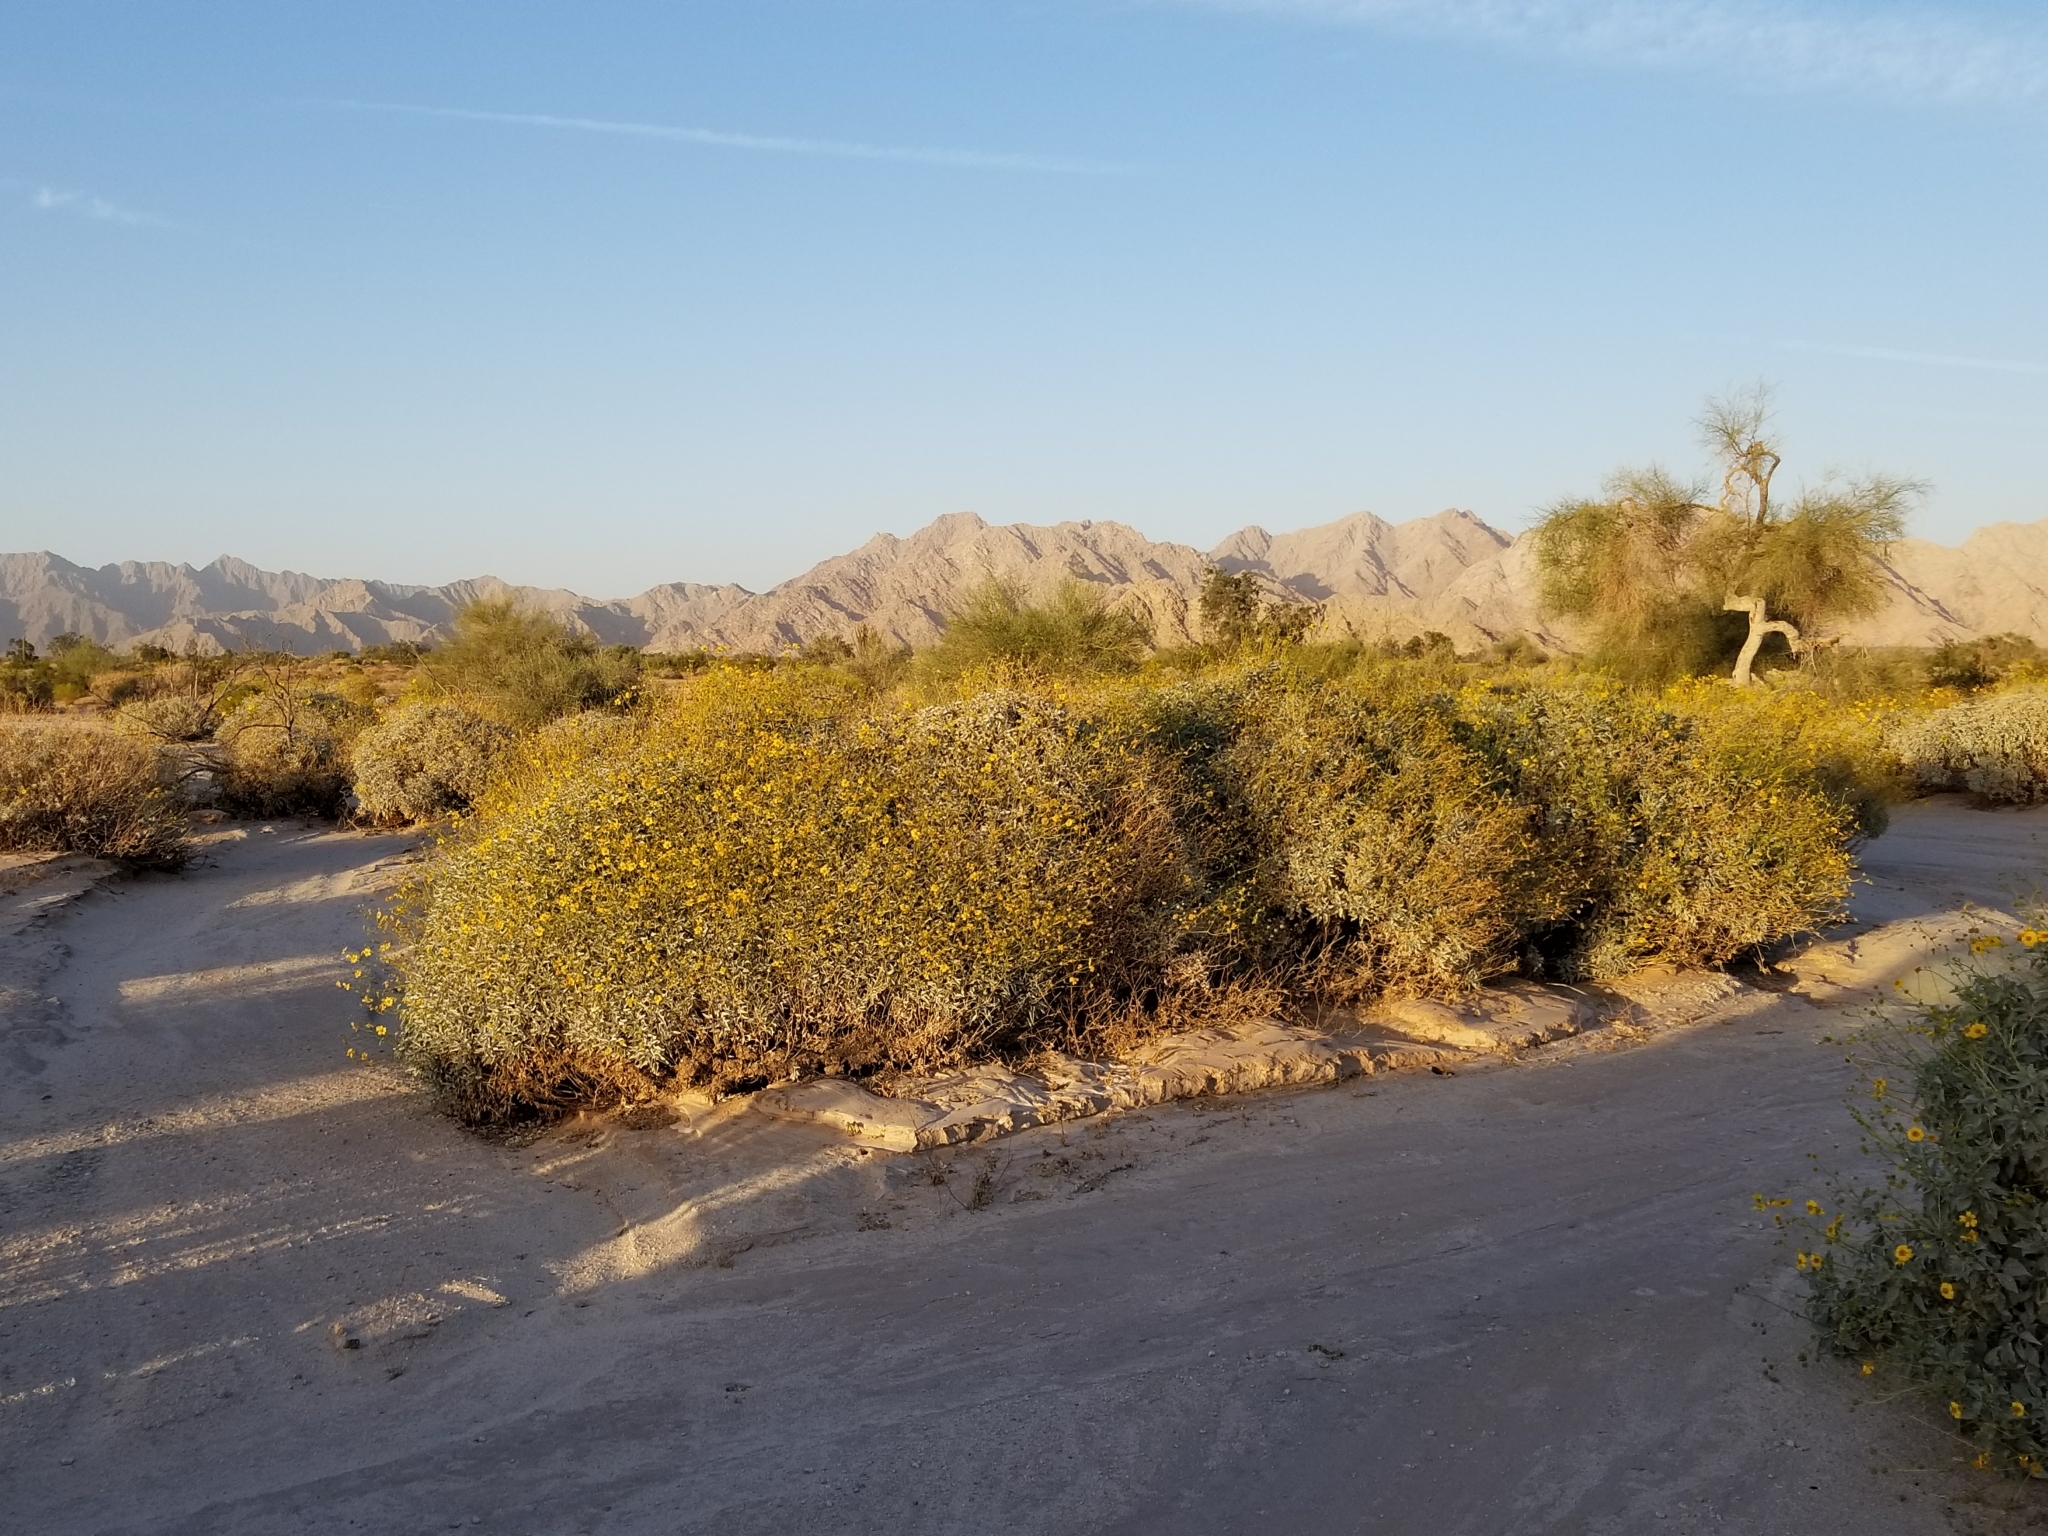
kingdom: Plantae
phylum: Tracheophyta
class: Magnoliopsida
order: Asterales
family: Asteraceae
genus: Encelia
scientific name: Encelia farinosa
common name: Brittlebush
